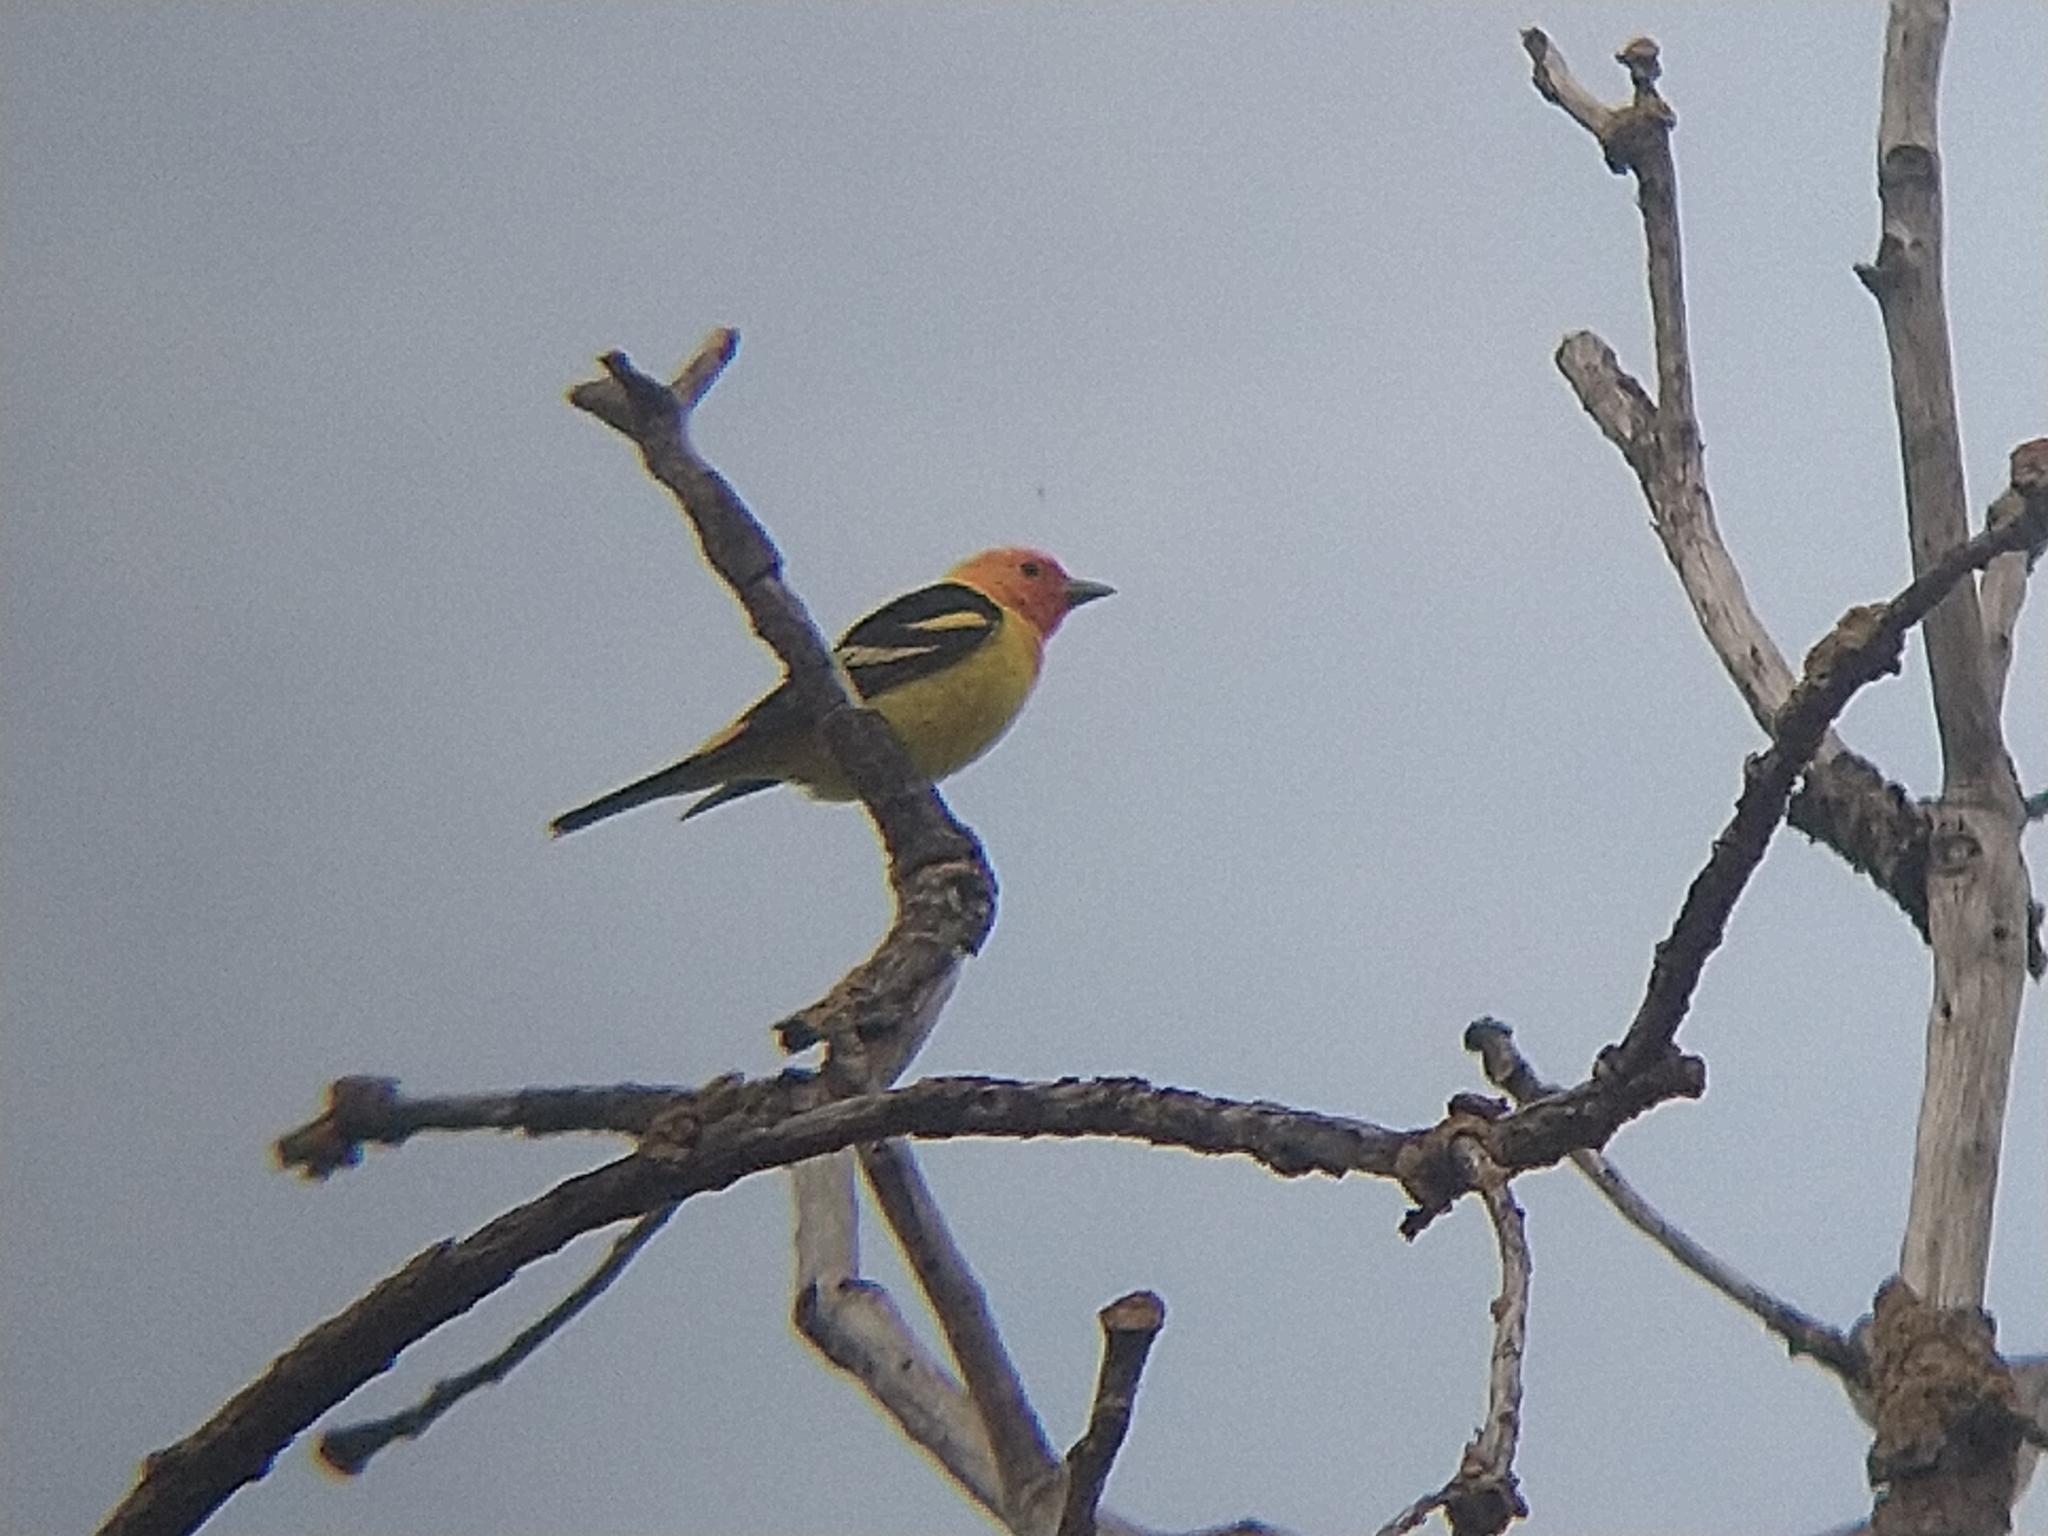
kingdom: Animalia
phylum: Chordata
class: Aves
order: Passeriformes
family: Cardinalidae
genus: Piranga
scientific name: Piranga ludoviciana
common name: Western tanager
